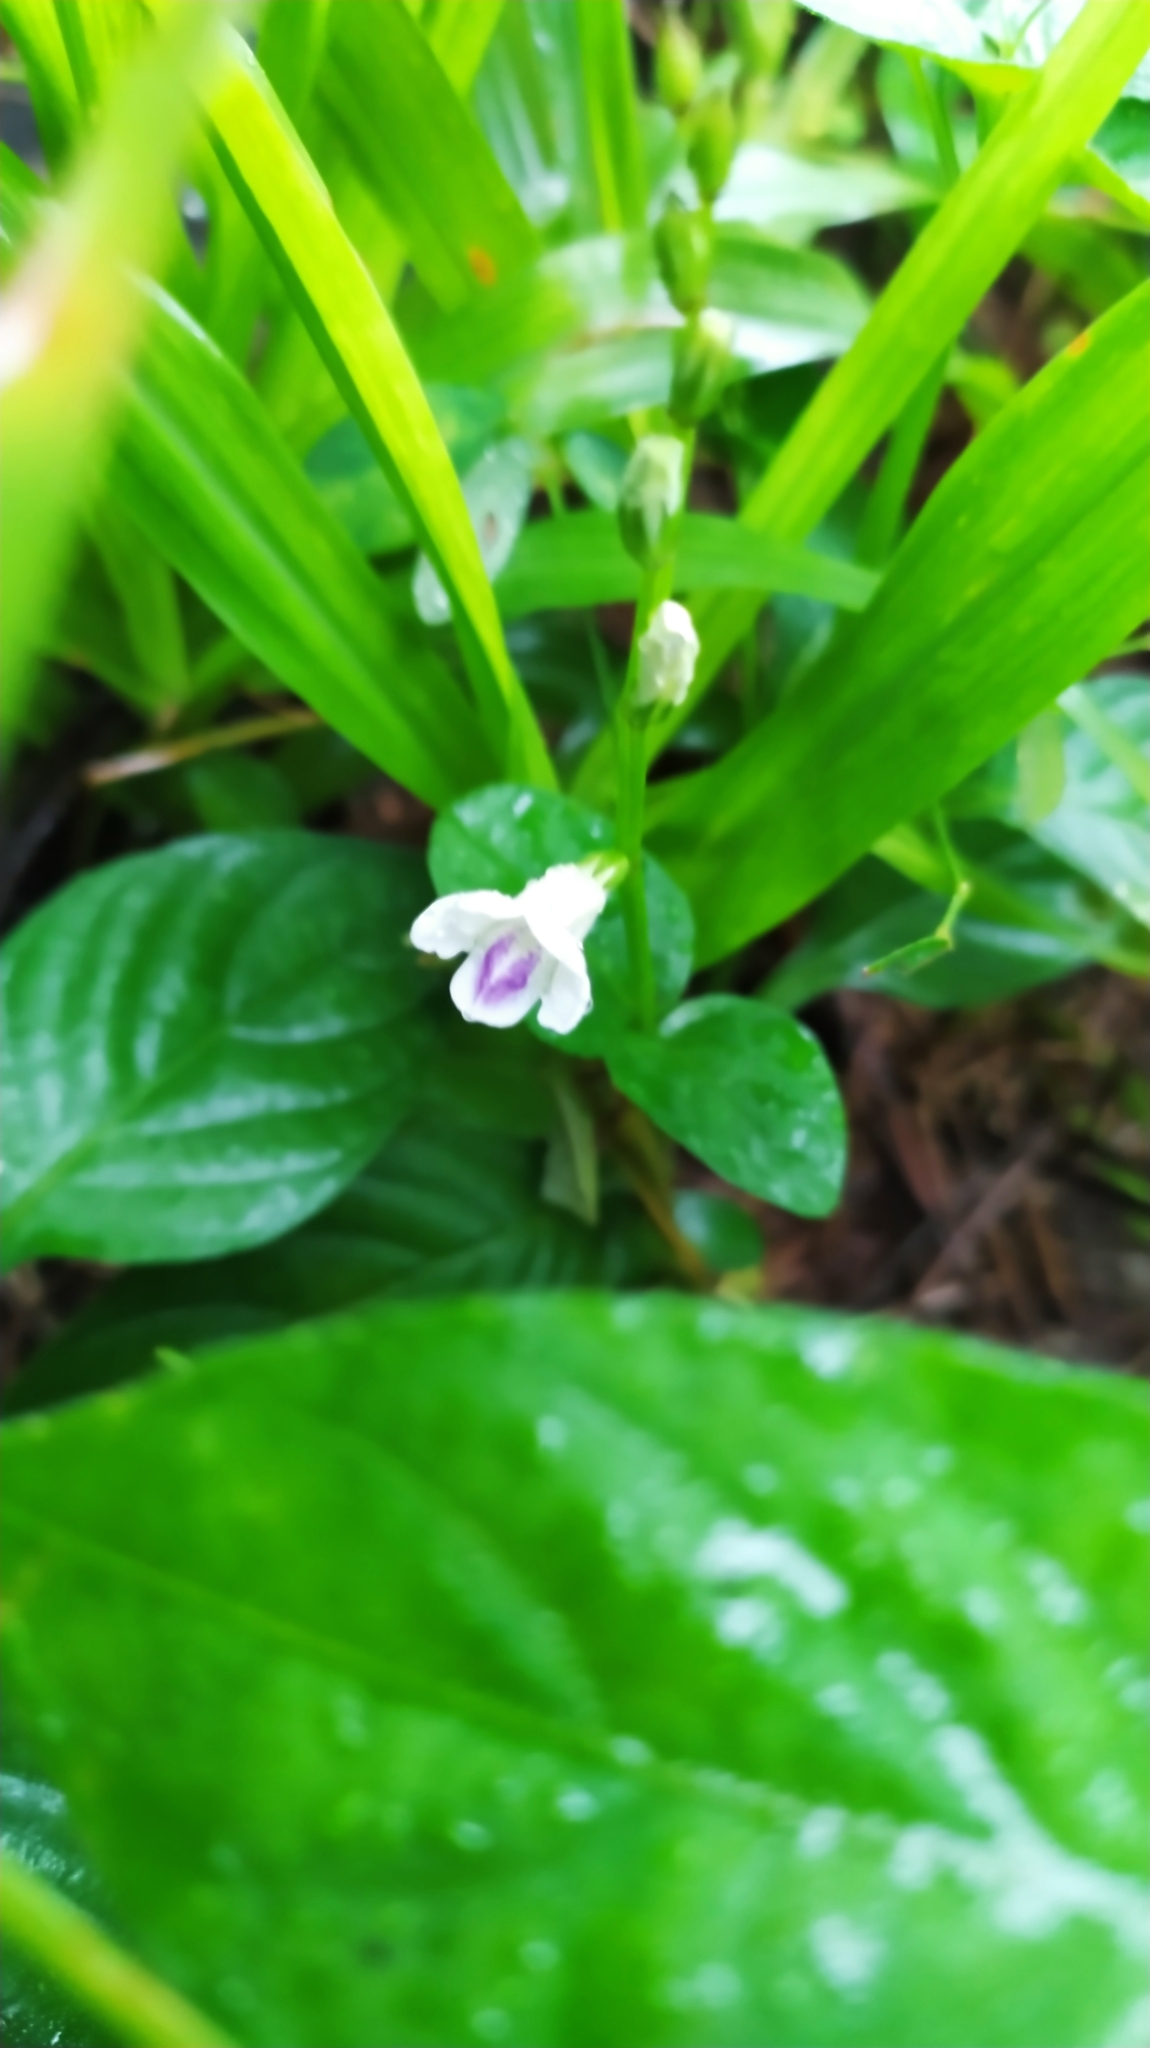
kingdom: Plantae
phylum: Tracheophyta
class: Magnoliopsida
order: Lamiales
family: Acanthaceae
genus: Asystasia
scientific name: Asystasia intrusa
